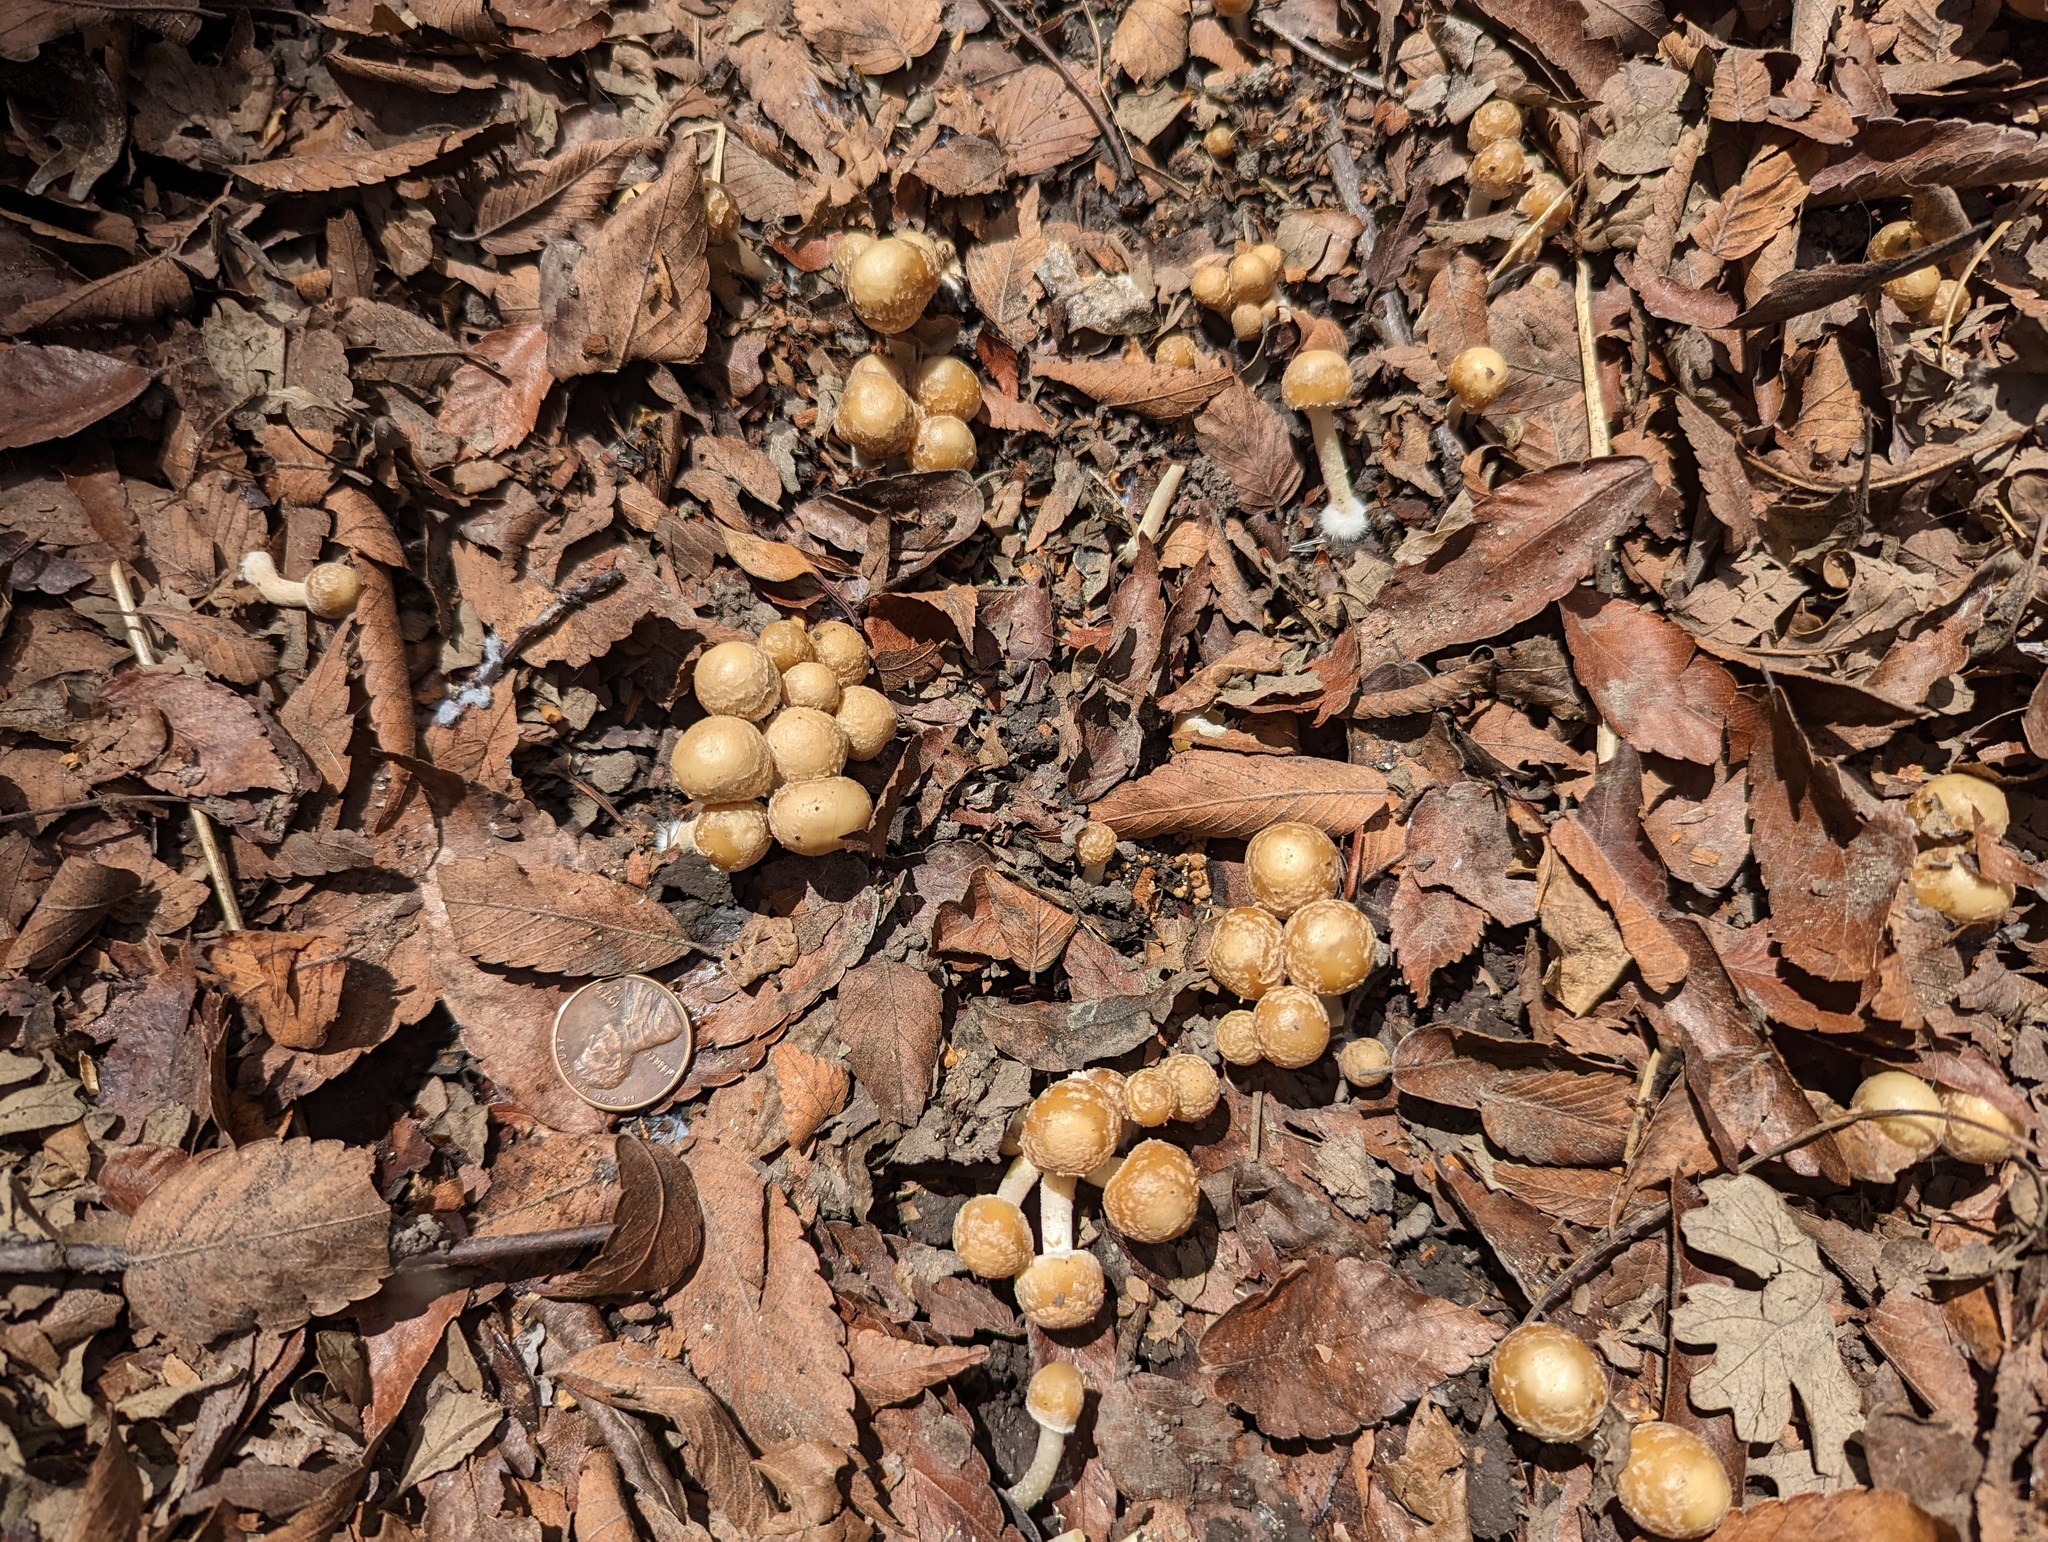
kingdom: Fungi
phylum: Basidiomycota
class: Agaricomycetes
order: Agaricales
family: Psathyrellaceae
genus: Candolleomyces
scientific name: Candolleomyces candolleanus
